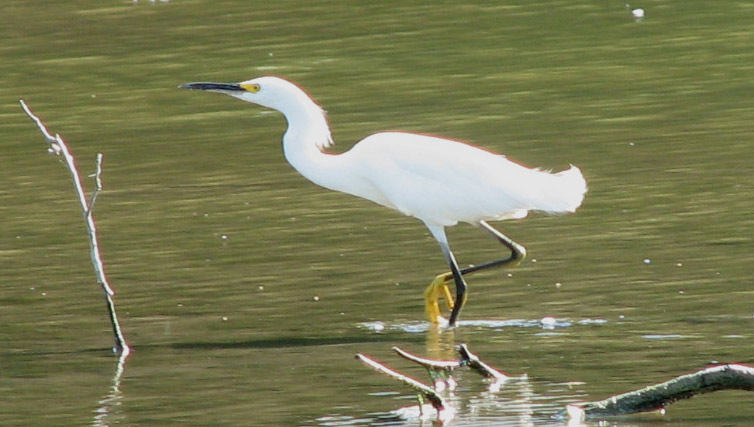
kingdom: Animalia
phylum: Chordata
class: Aves
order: Pelecaniformes
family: Ardeidae
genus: Egretta
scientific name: Egretta thula
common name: Snowy egret
